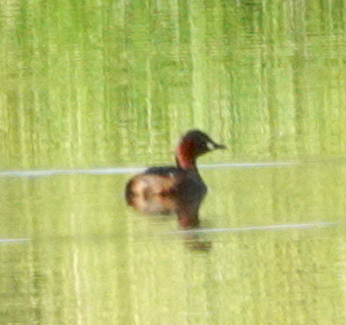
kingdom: Animalia
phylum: Chordata
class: Aves
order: Podicipediformes
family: Podicipedidae
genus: Tachybaptus
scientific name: Tachybaptus ruficollis
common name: Little grebe
